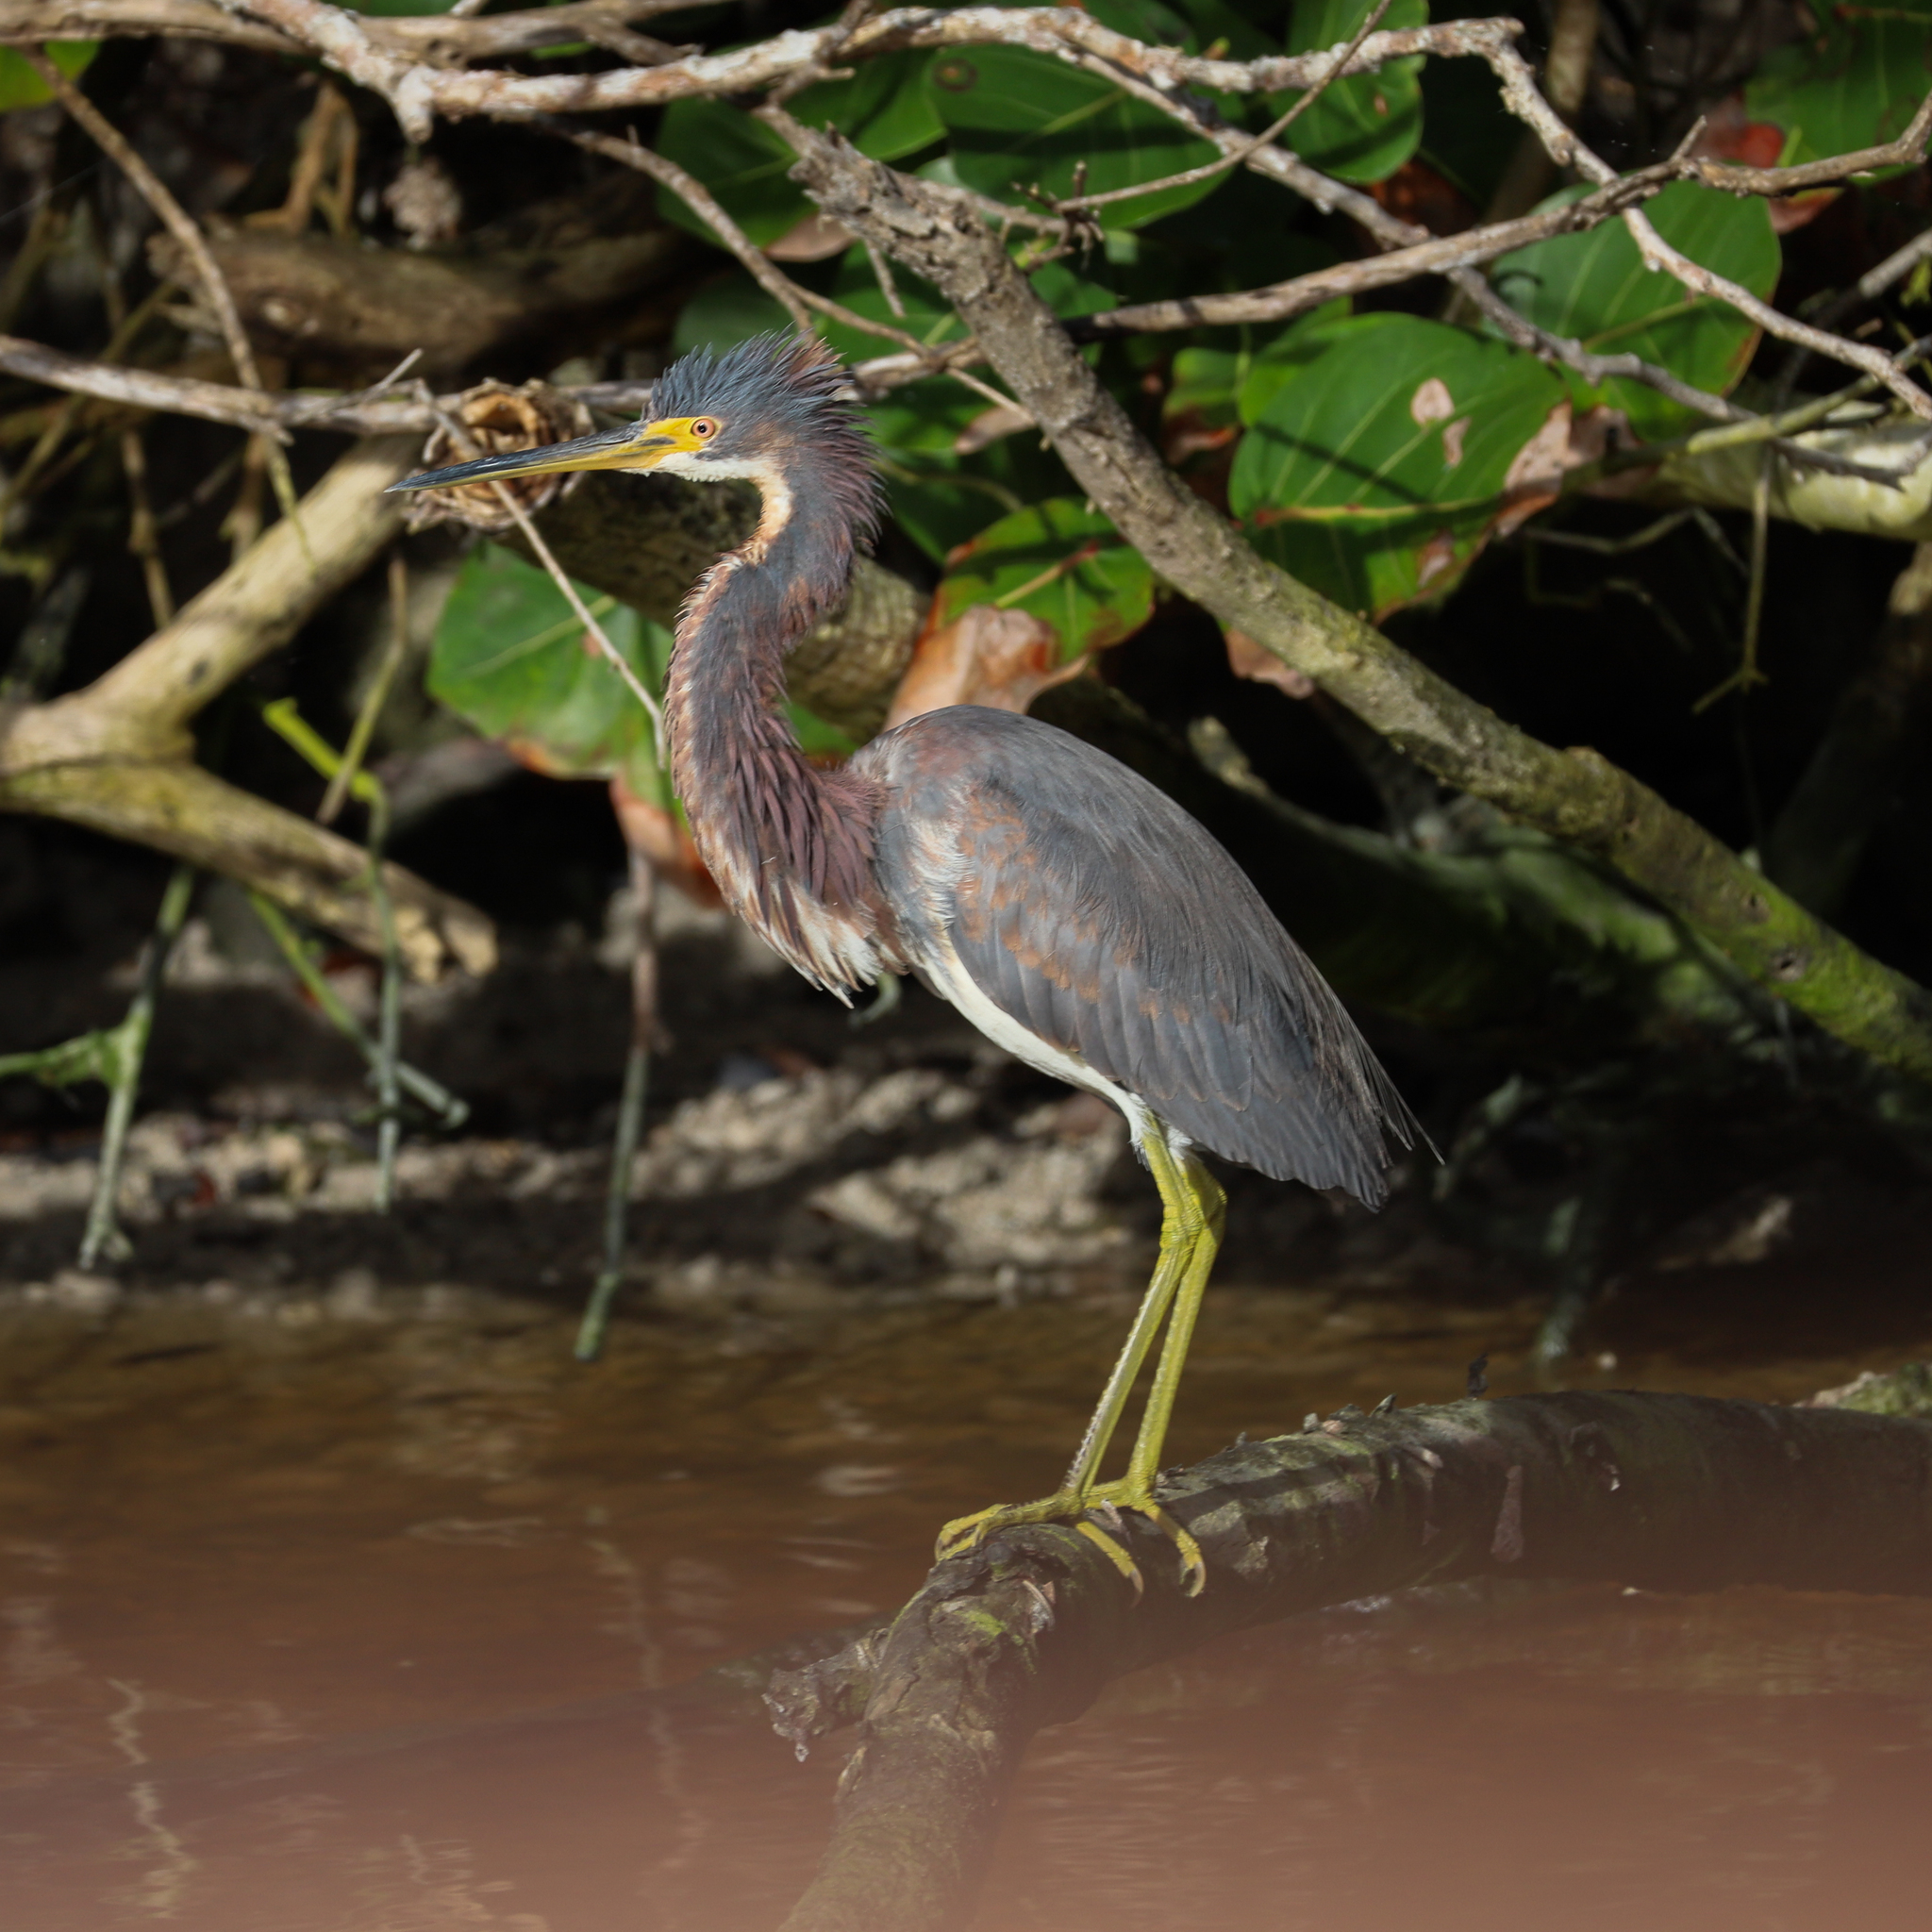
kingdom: Animalia
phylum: Chordata
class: Aves
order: Pelecaniformes
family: Ardeidae
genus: Egretta
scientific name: Egretta tricolor
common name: Tricolored heron
